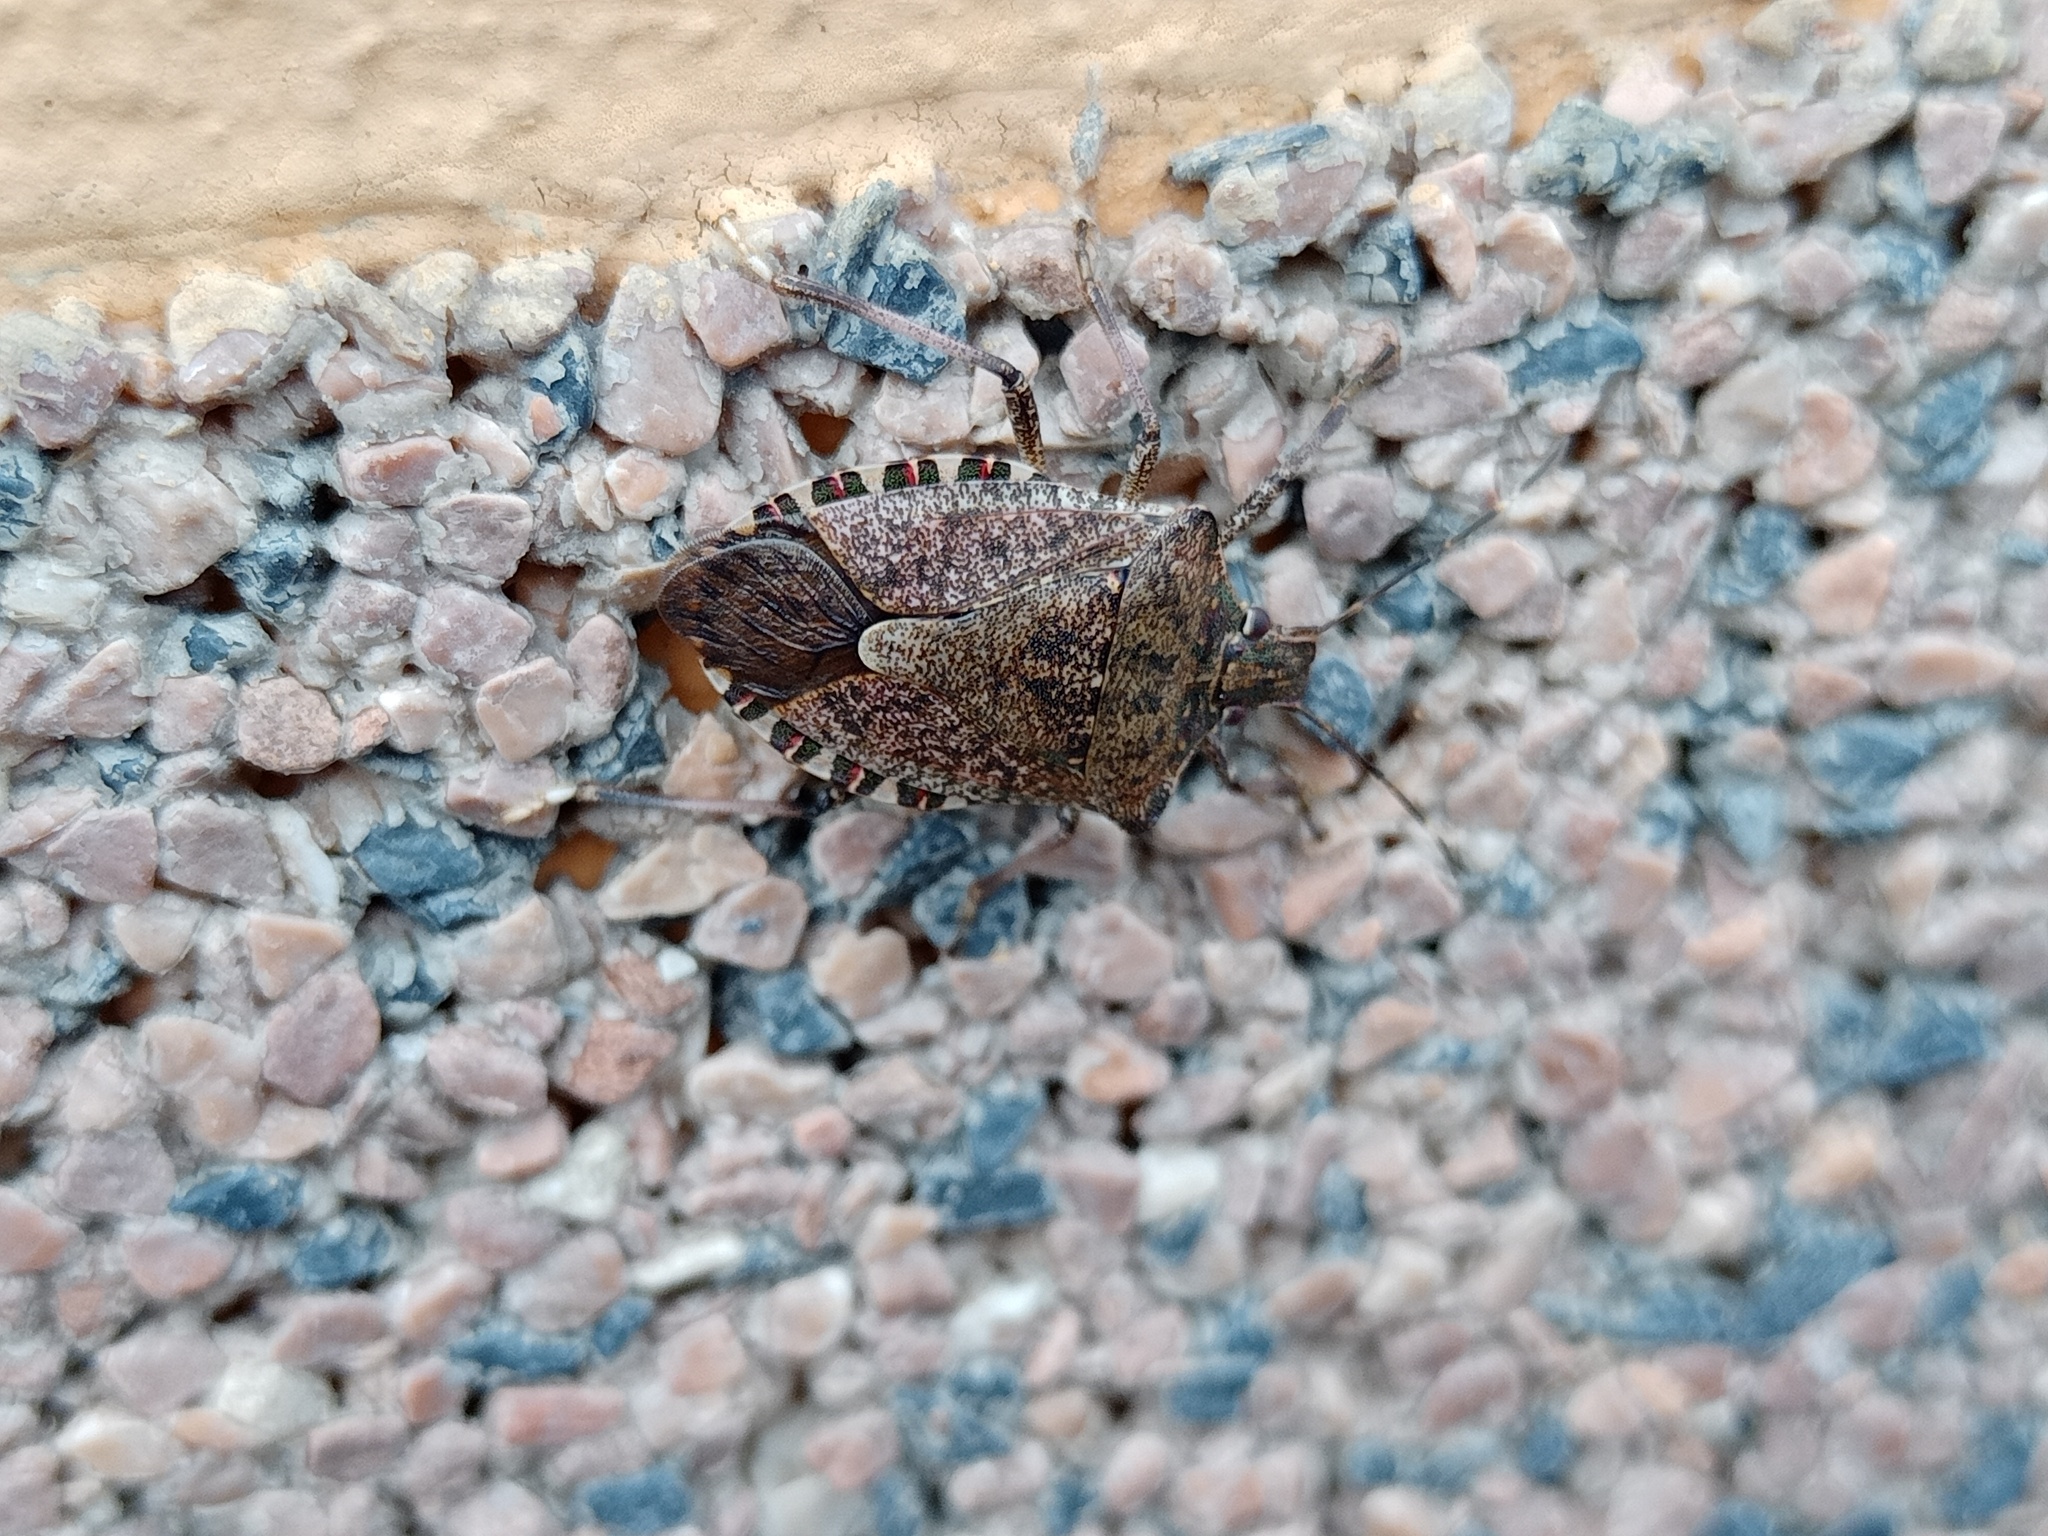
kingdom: Animalia
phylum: Arthropoda
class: Insecta
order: Hemiptera
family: Pentatomidae
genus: Halyomorpha
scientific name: Halyomorpha halys
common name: Brown marmorated stink bug
